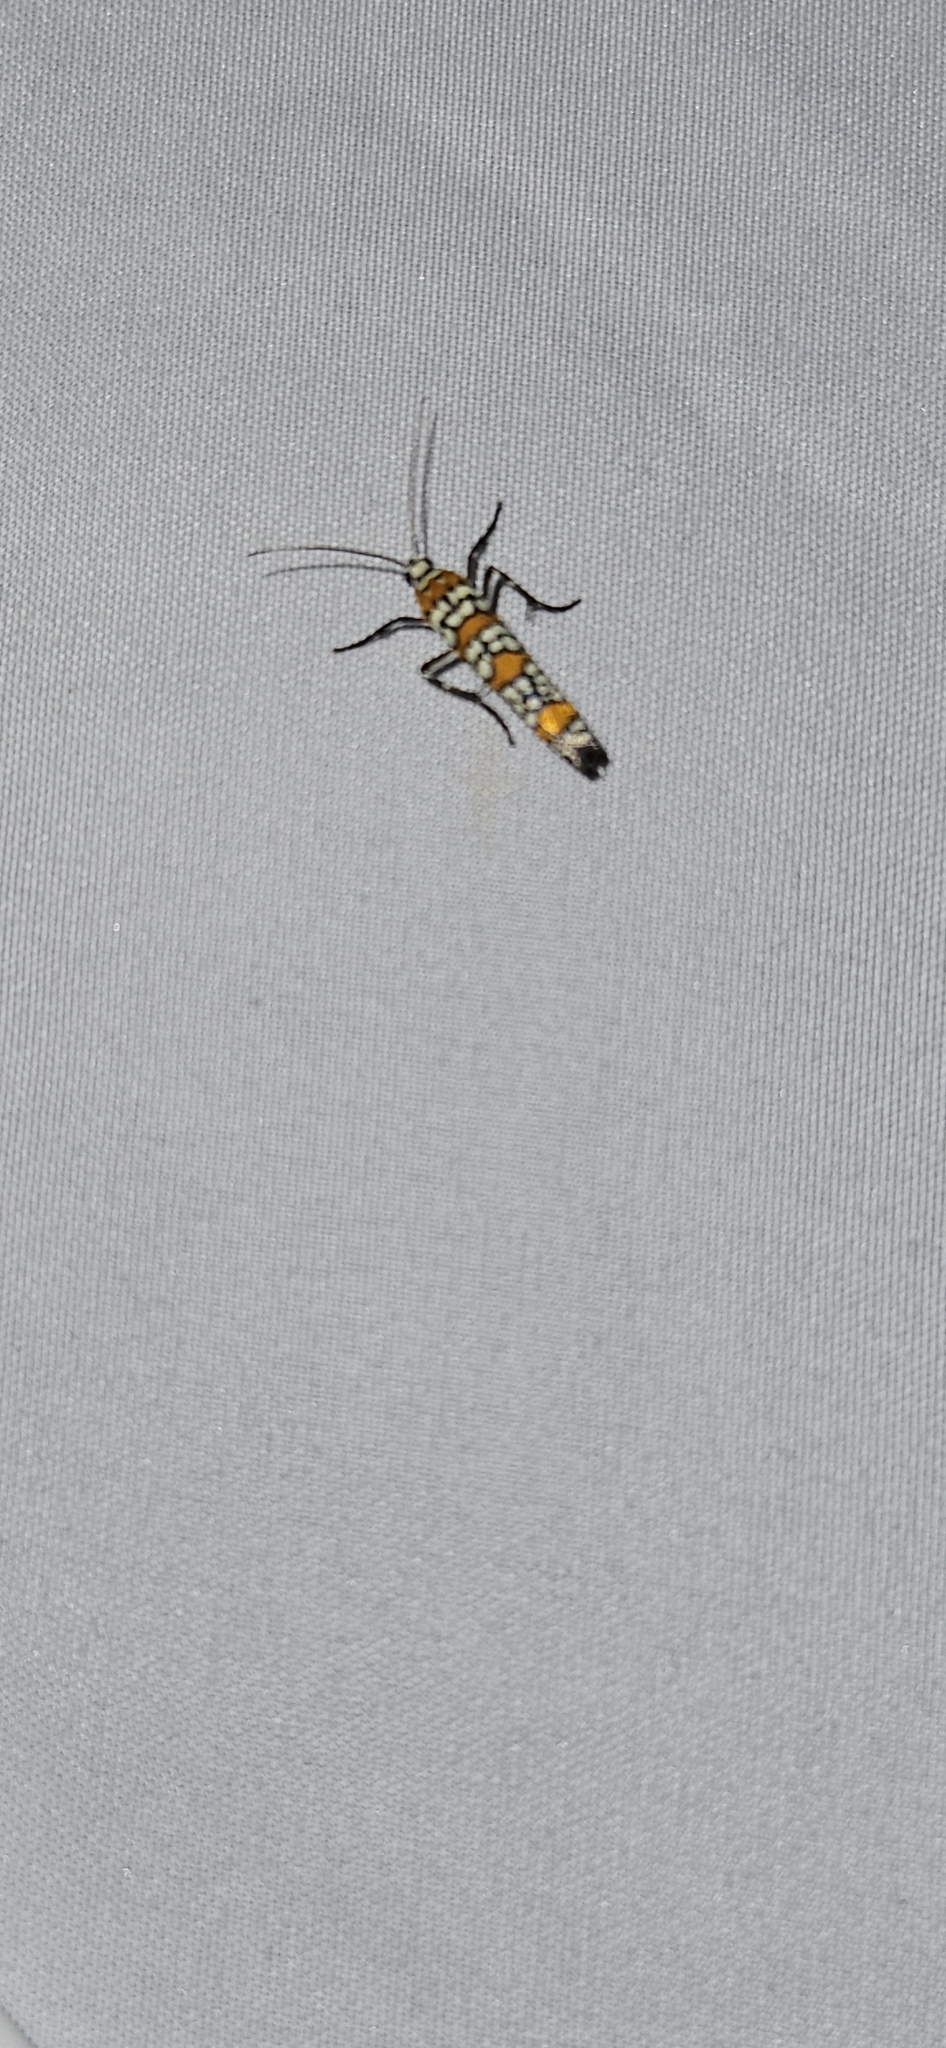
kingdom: Animalia
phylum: Arthropoda
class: Insecta
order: Lepidoptera
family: Attevidae
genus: Atteva
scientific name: Atteva punctella
